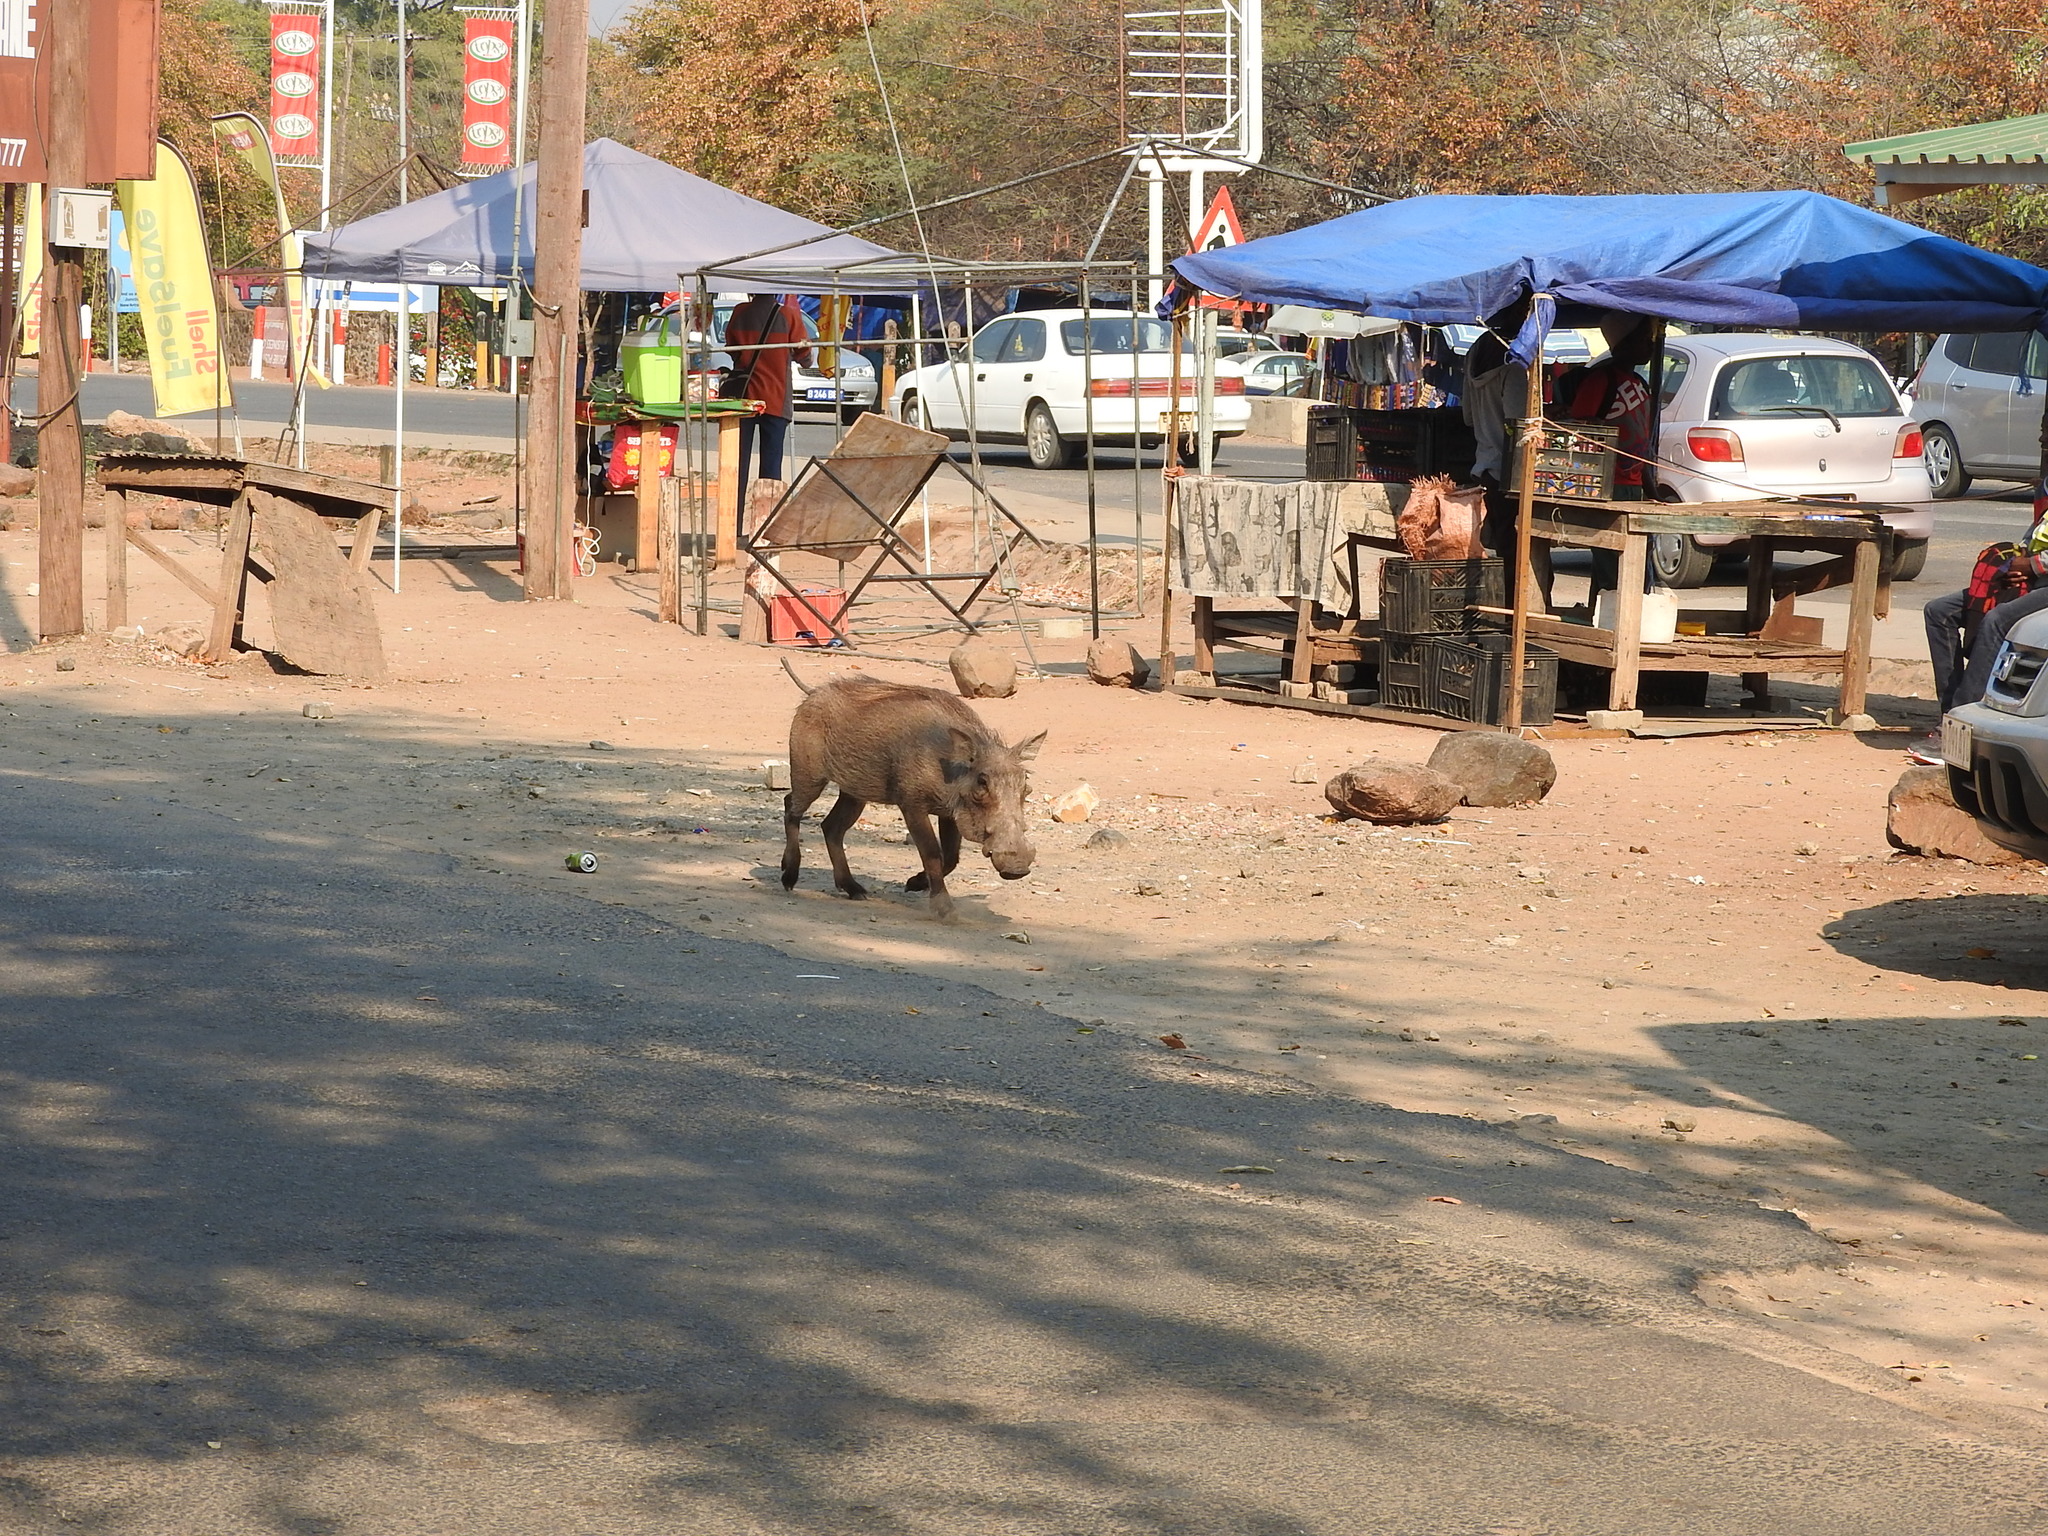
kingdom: Animalia
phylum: Chordata
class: Mammalia
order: Artiodactyla
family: Suidae
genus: Phacochoerus
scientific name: Phacochoerus africanus
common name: Common warthog
